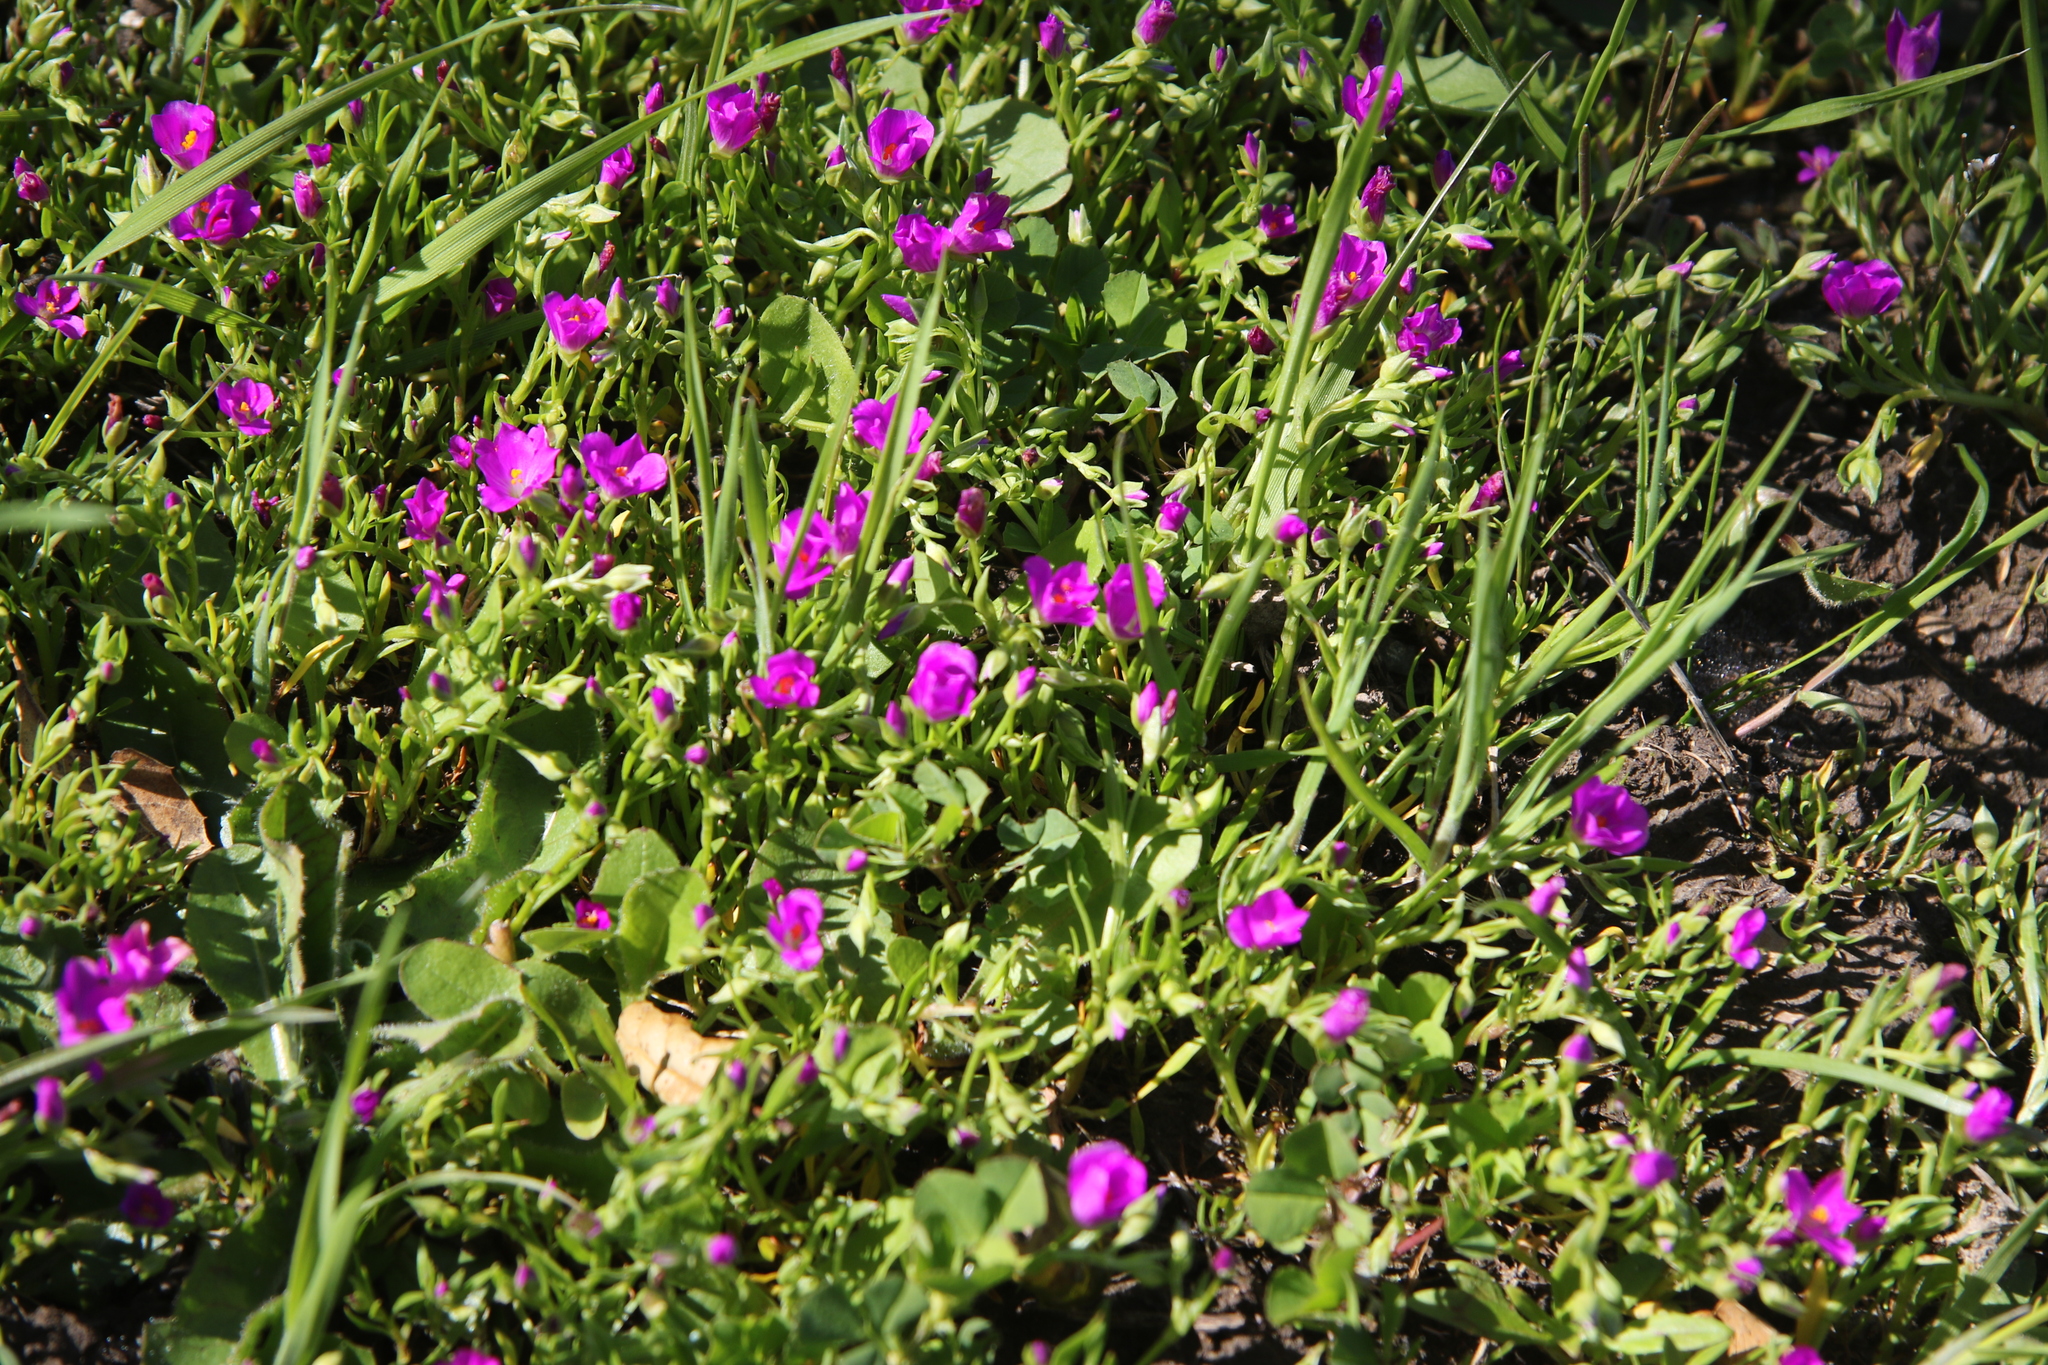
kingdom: Plantae
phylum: Tracheophyta
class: Magnoliopsida
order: Caryophyllales
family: Montiaceae
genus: Calandrinia
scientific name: Calandrinia menziesii
